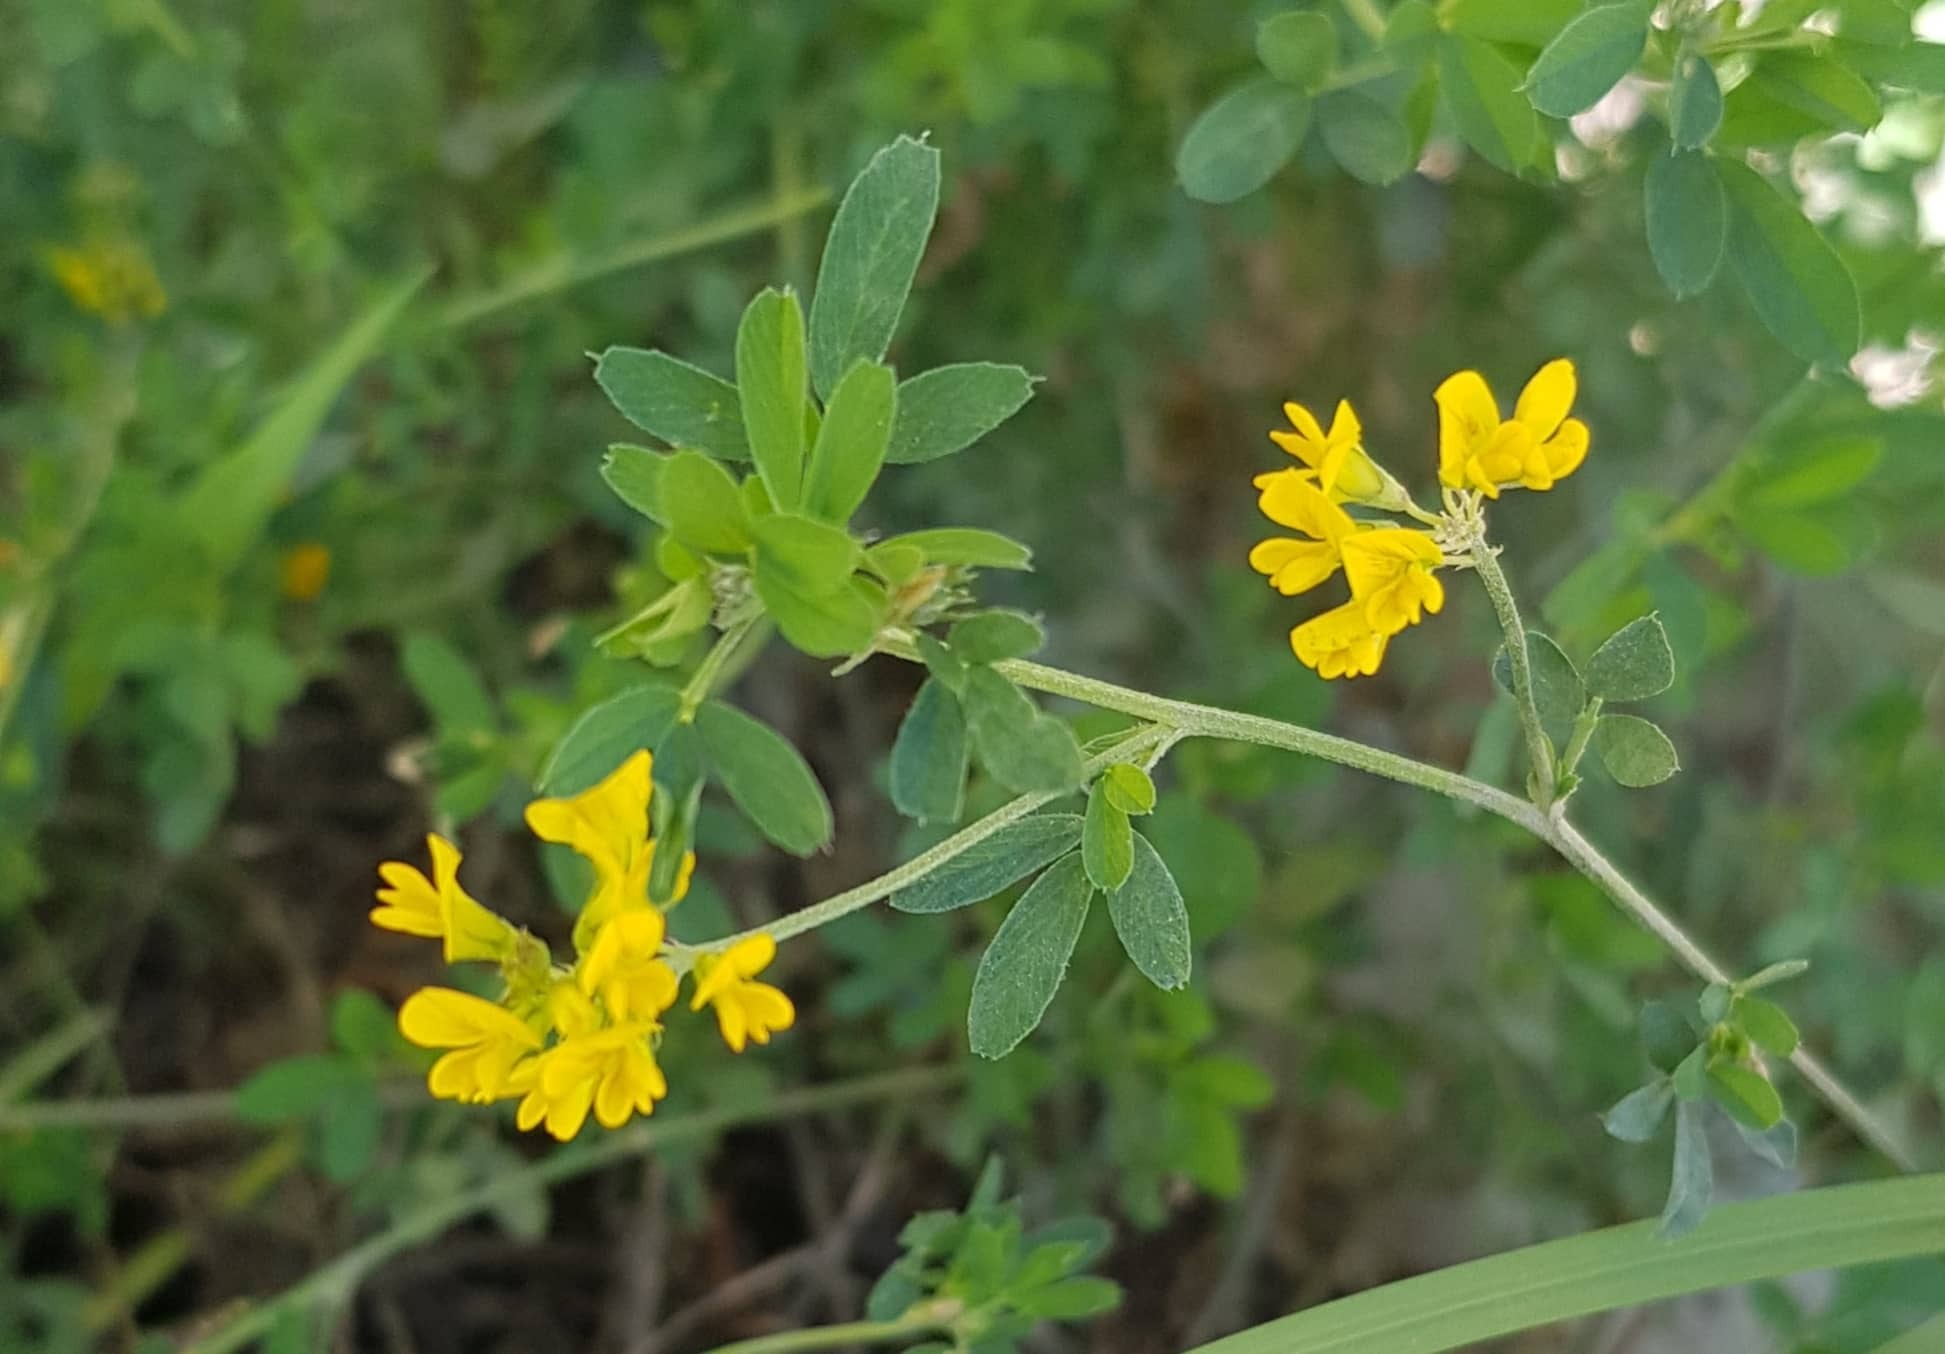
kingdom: Plantae
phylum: Tracheophyta
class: Magnoliopsida
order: Fabales
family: Fabaceae
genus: Medicago
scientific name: Medicago falcata
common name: Sickle medick
